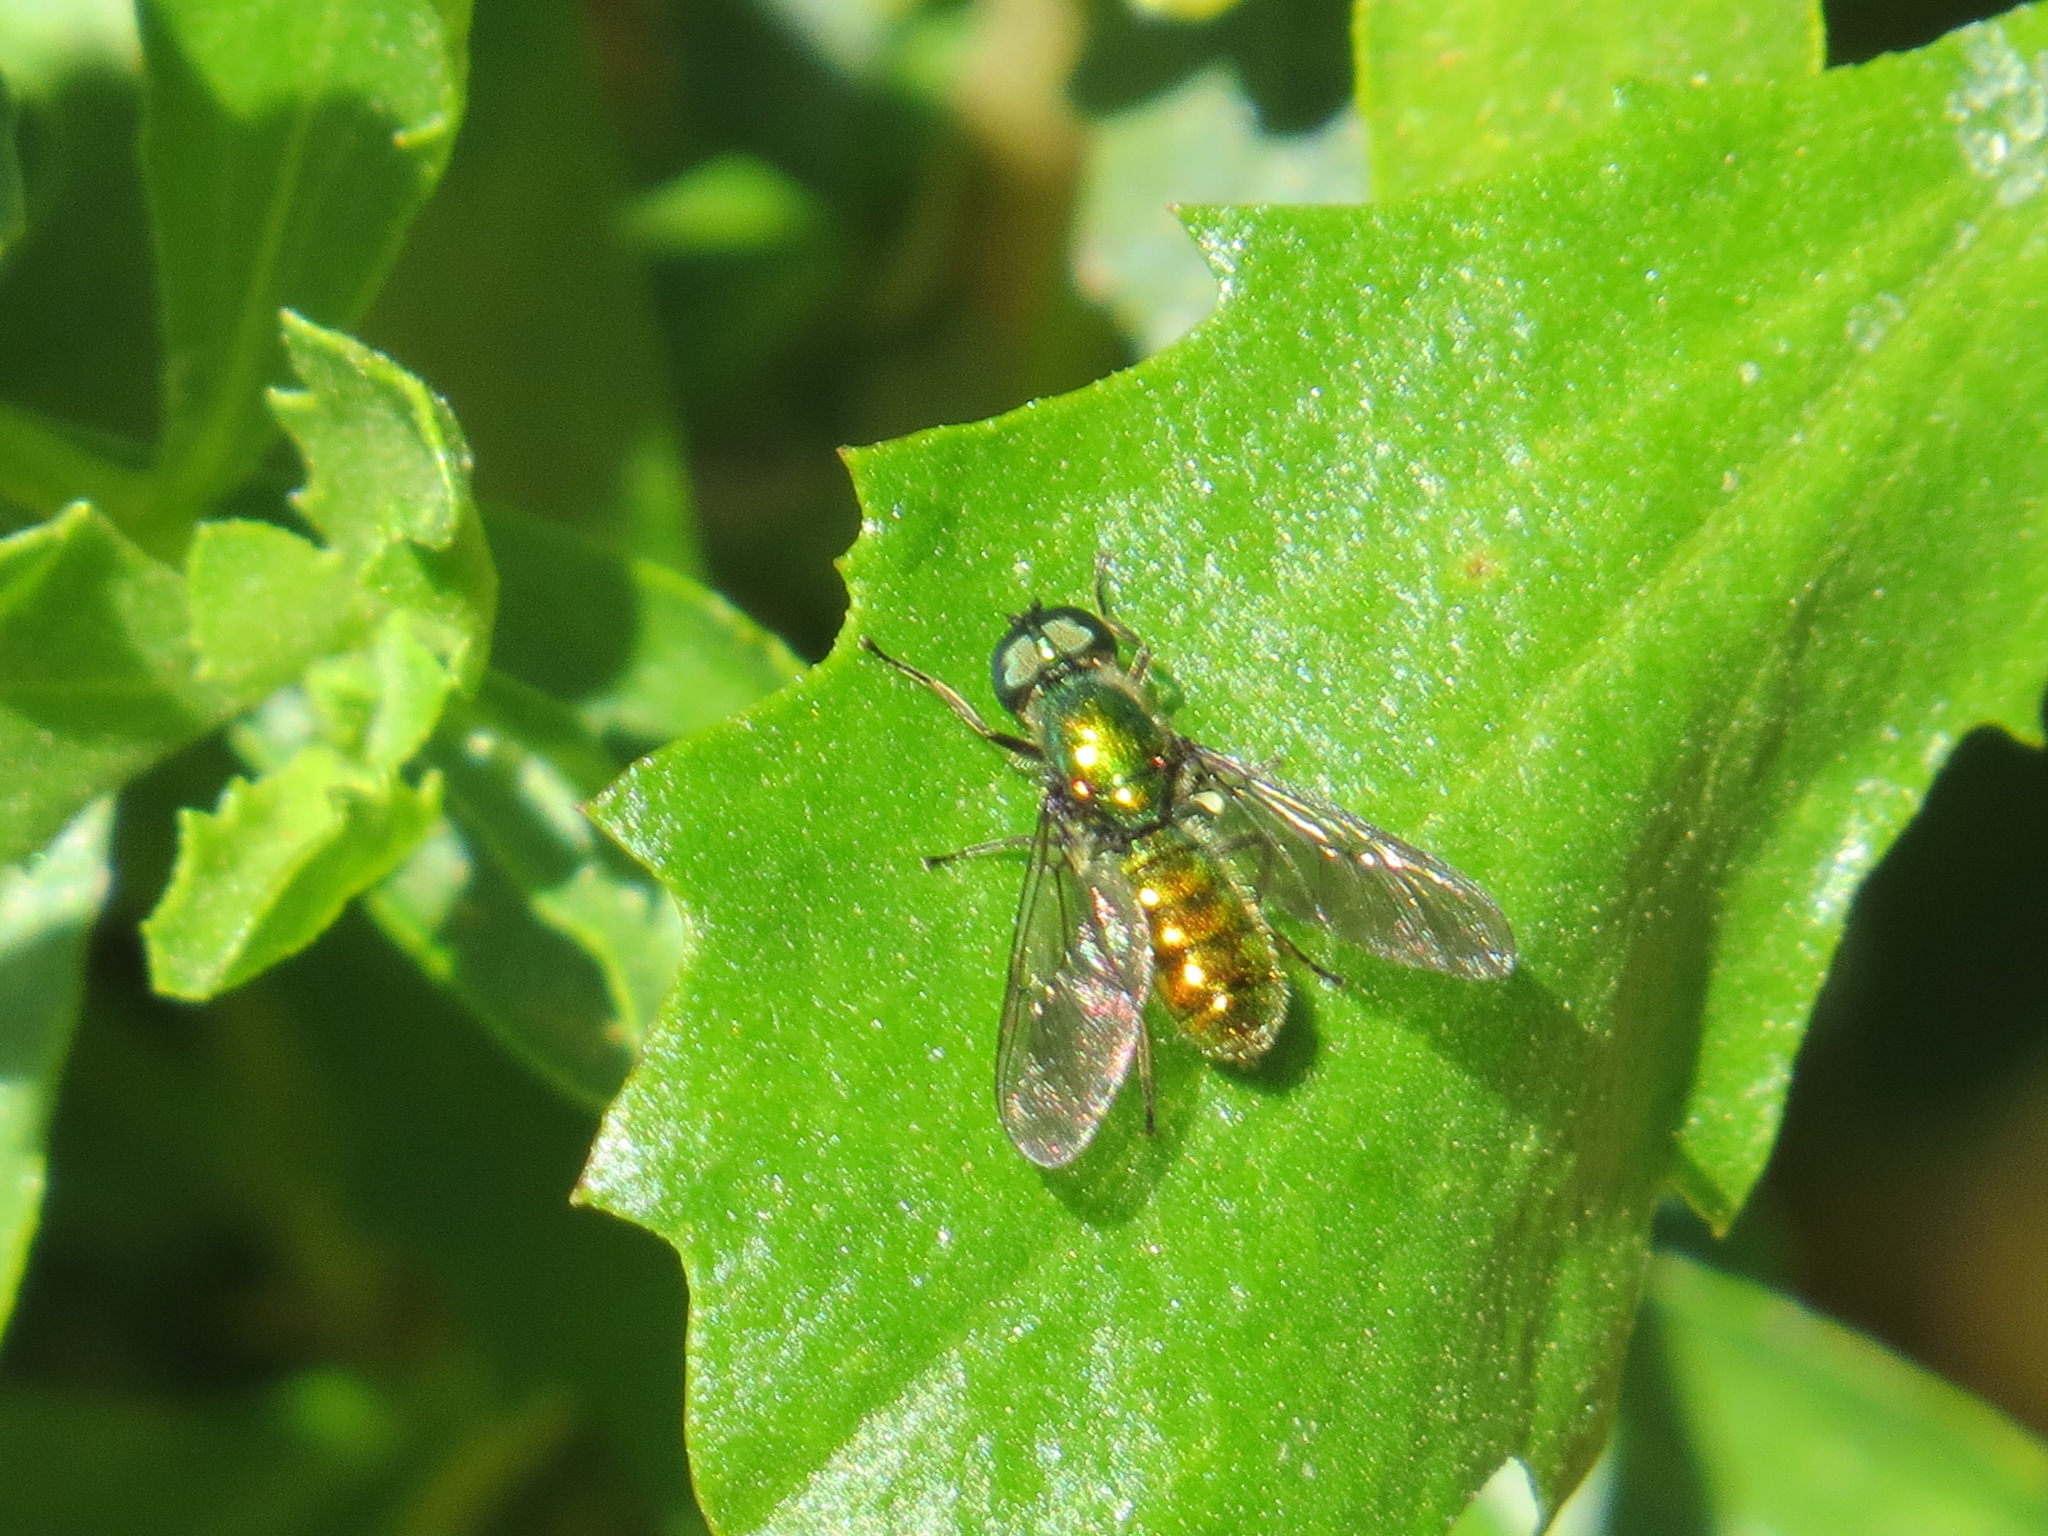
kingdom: Animalia
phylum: Arthropoda
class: Insecta
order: Diptera
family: Stratiomyidae
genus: Sargus
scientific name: Sargus viridis
